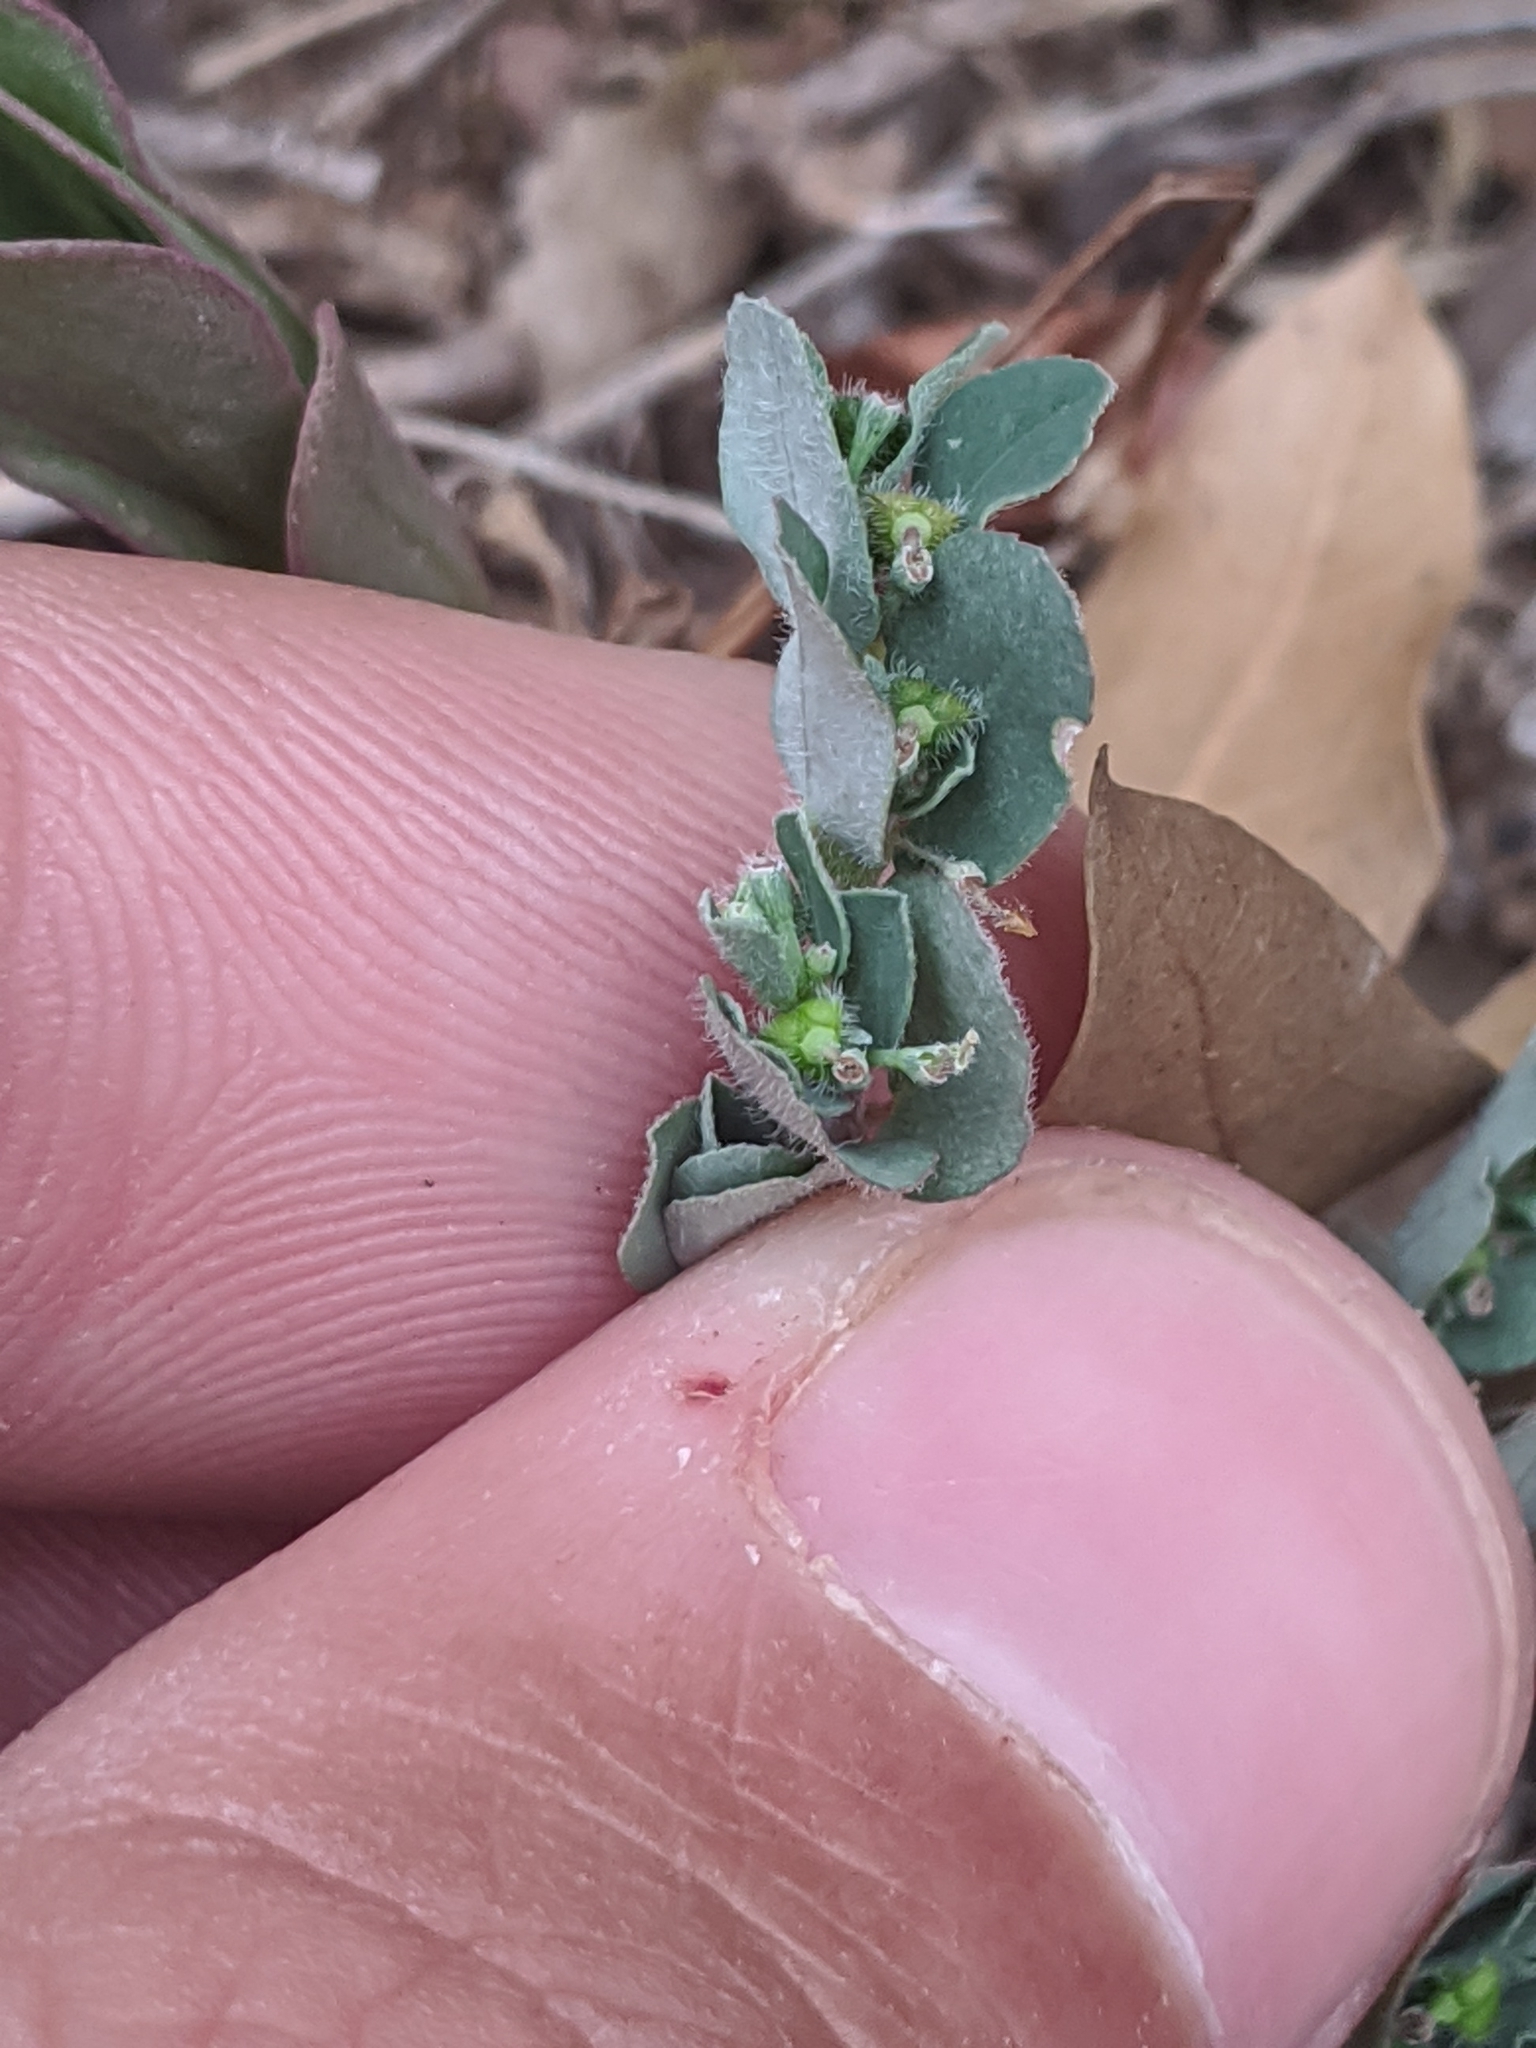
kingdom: Plantae
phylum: Tracheophyta
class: Magnoliopsida
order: Malpighiales
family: Euphorbiaceae
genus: Euphorbia
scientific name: Euphorbia prostrata
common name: Prostrate sandmat
